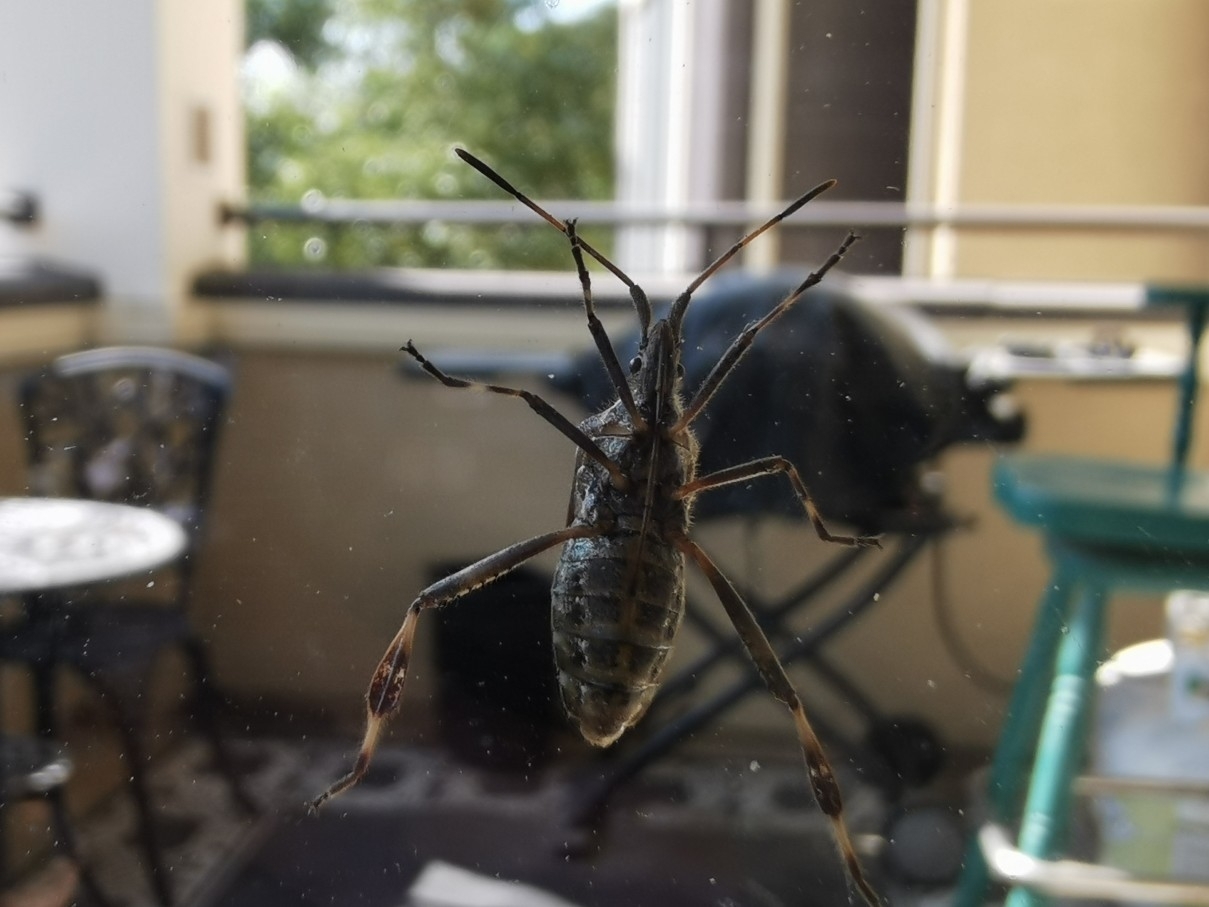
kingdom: Animalia
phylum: Arthropoda
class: Insecta
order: Hemiptera
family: Coreidae
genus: Leptoglossus
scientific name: Leptoglossus occidentalis
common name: Western conifer-seed bug
